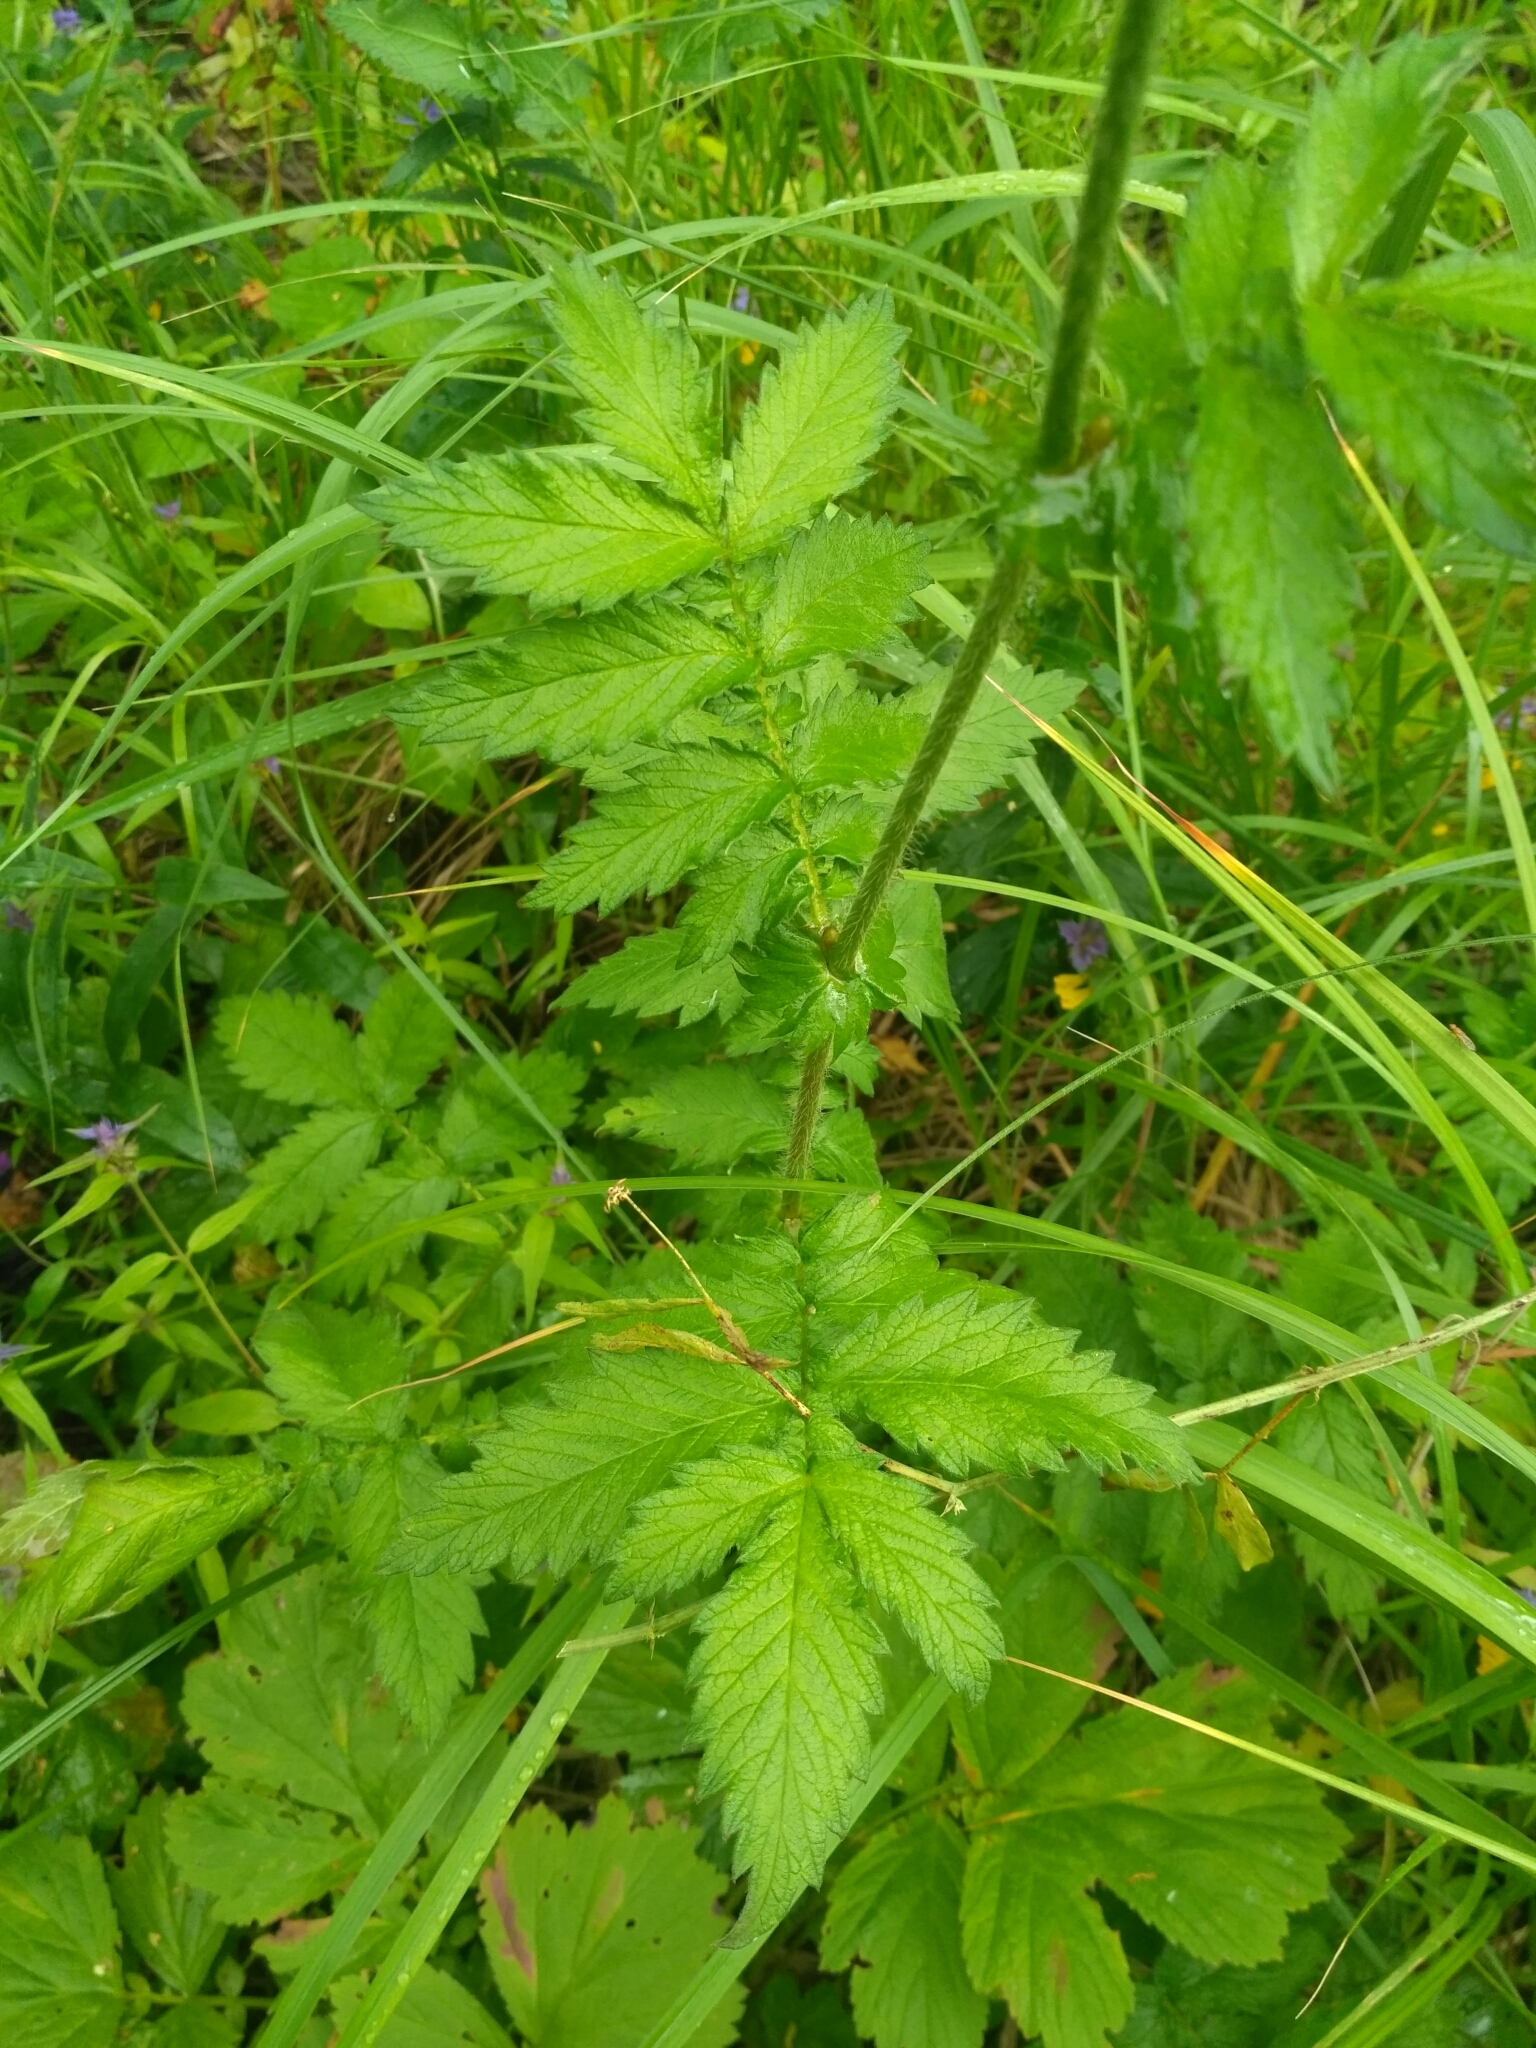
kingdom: Plantae
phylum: Tracheophyta
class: Magnoliopsida
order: Rosales
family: Rosaceae
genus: Agrimonia
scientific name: Agrimonia eupatoria
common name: Agrimony
